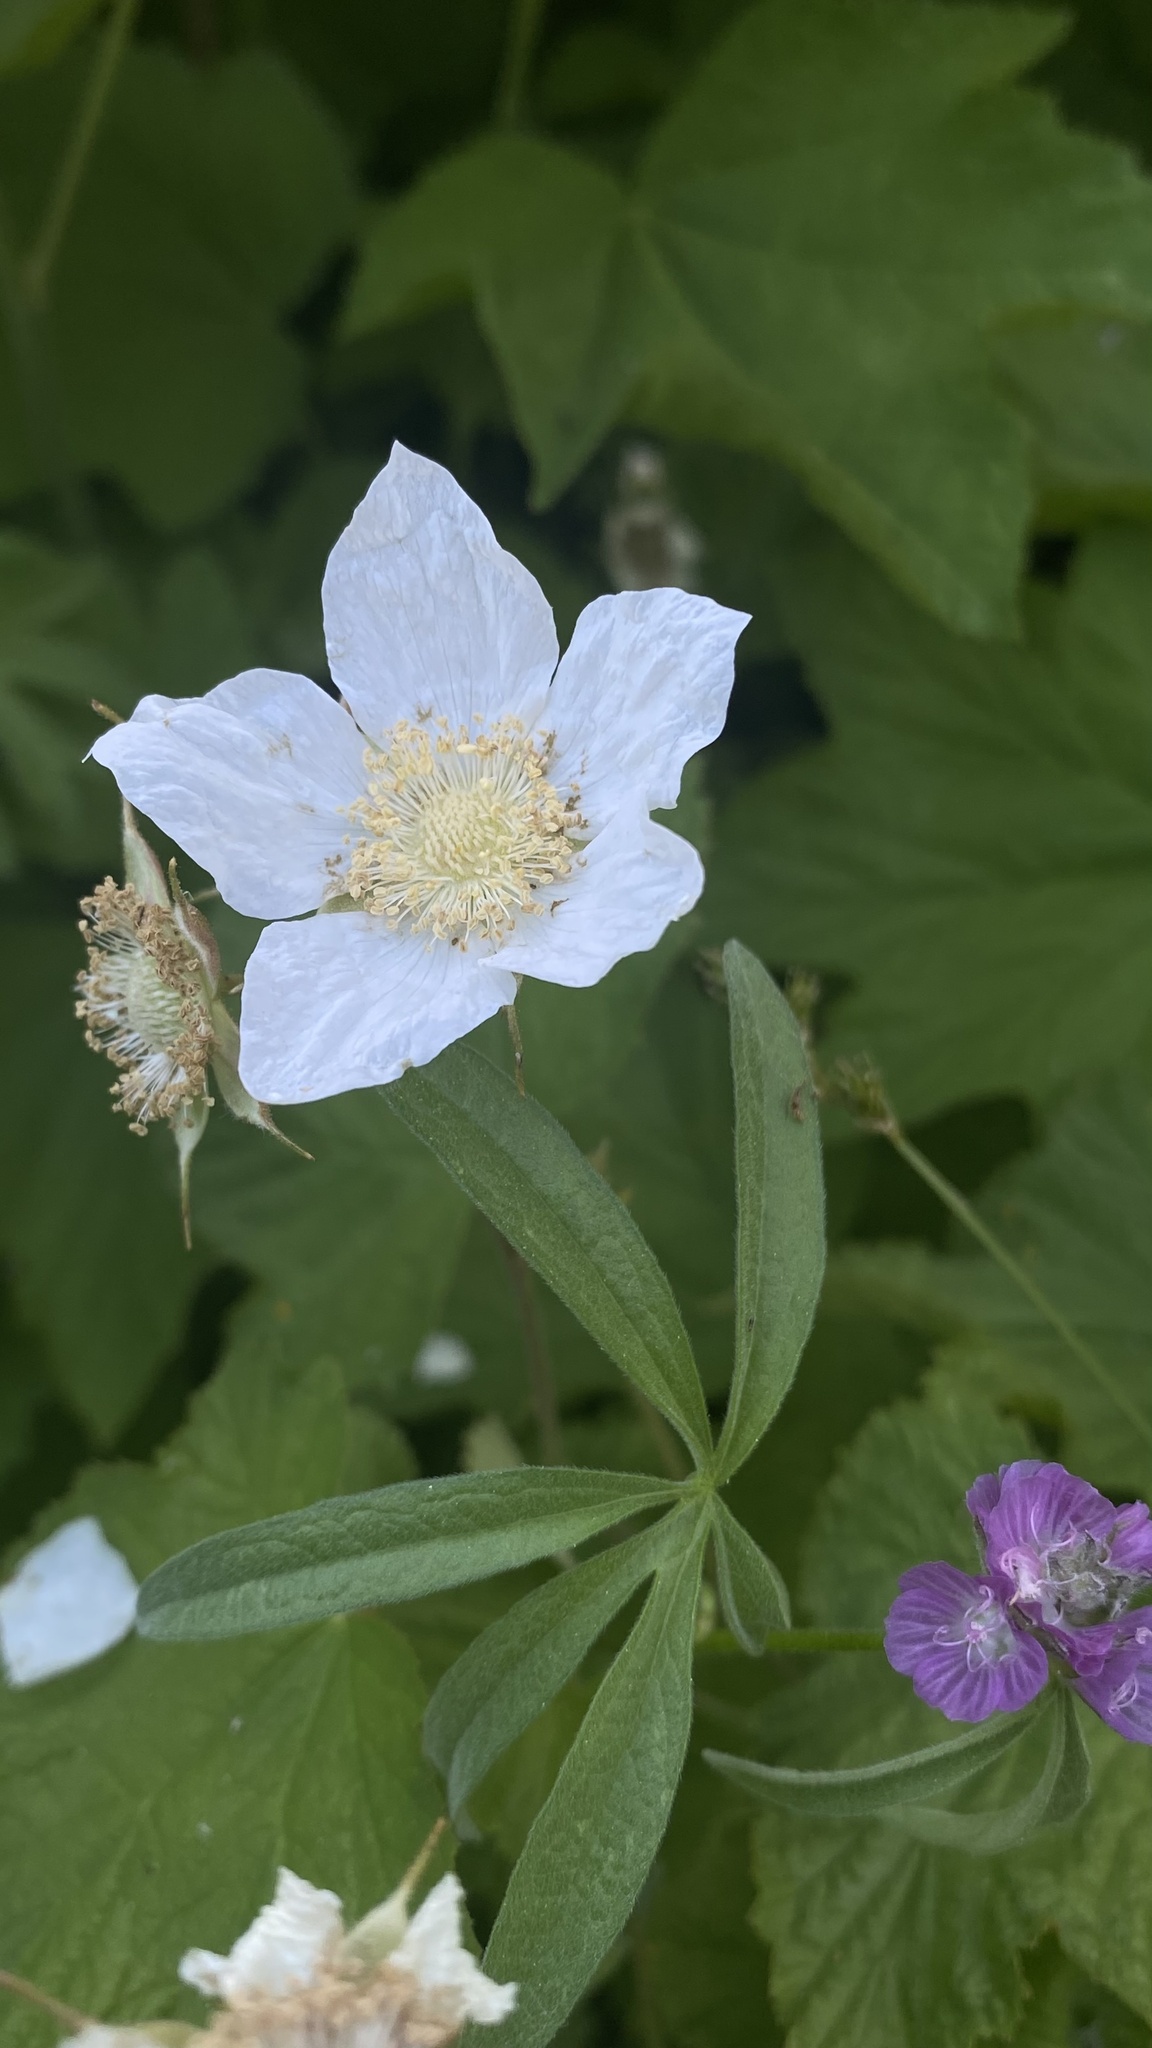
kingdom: Plantae
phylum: Tracheophyta
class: Magnoliopsida
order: Rosales
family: Rosaceae
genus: Rubus
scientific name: Rubus parviflorus
